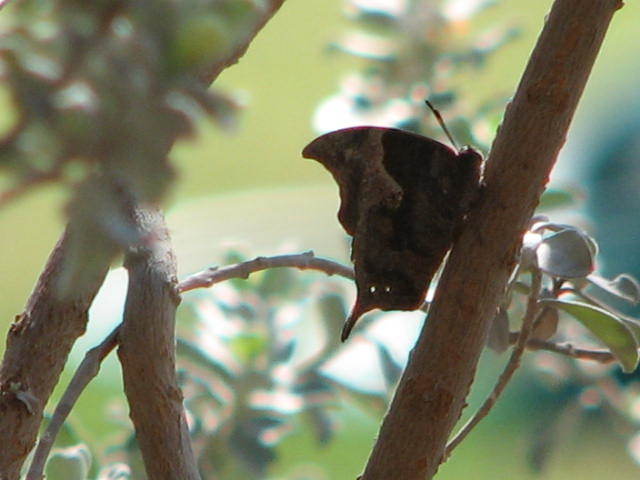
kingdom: Animalia
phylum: Arthropoda
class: Insecta
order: Lepidoptera
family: Nymphalidae
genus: Anaea
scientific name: Anaea pithyusa
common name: Pale-spotted leafwing
